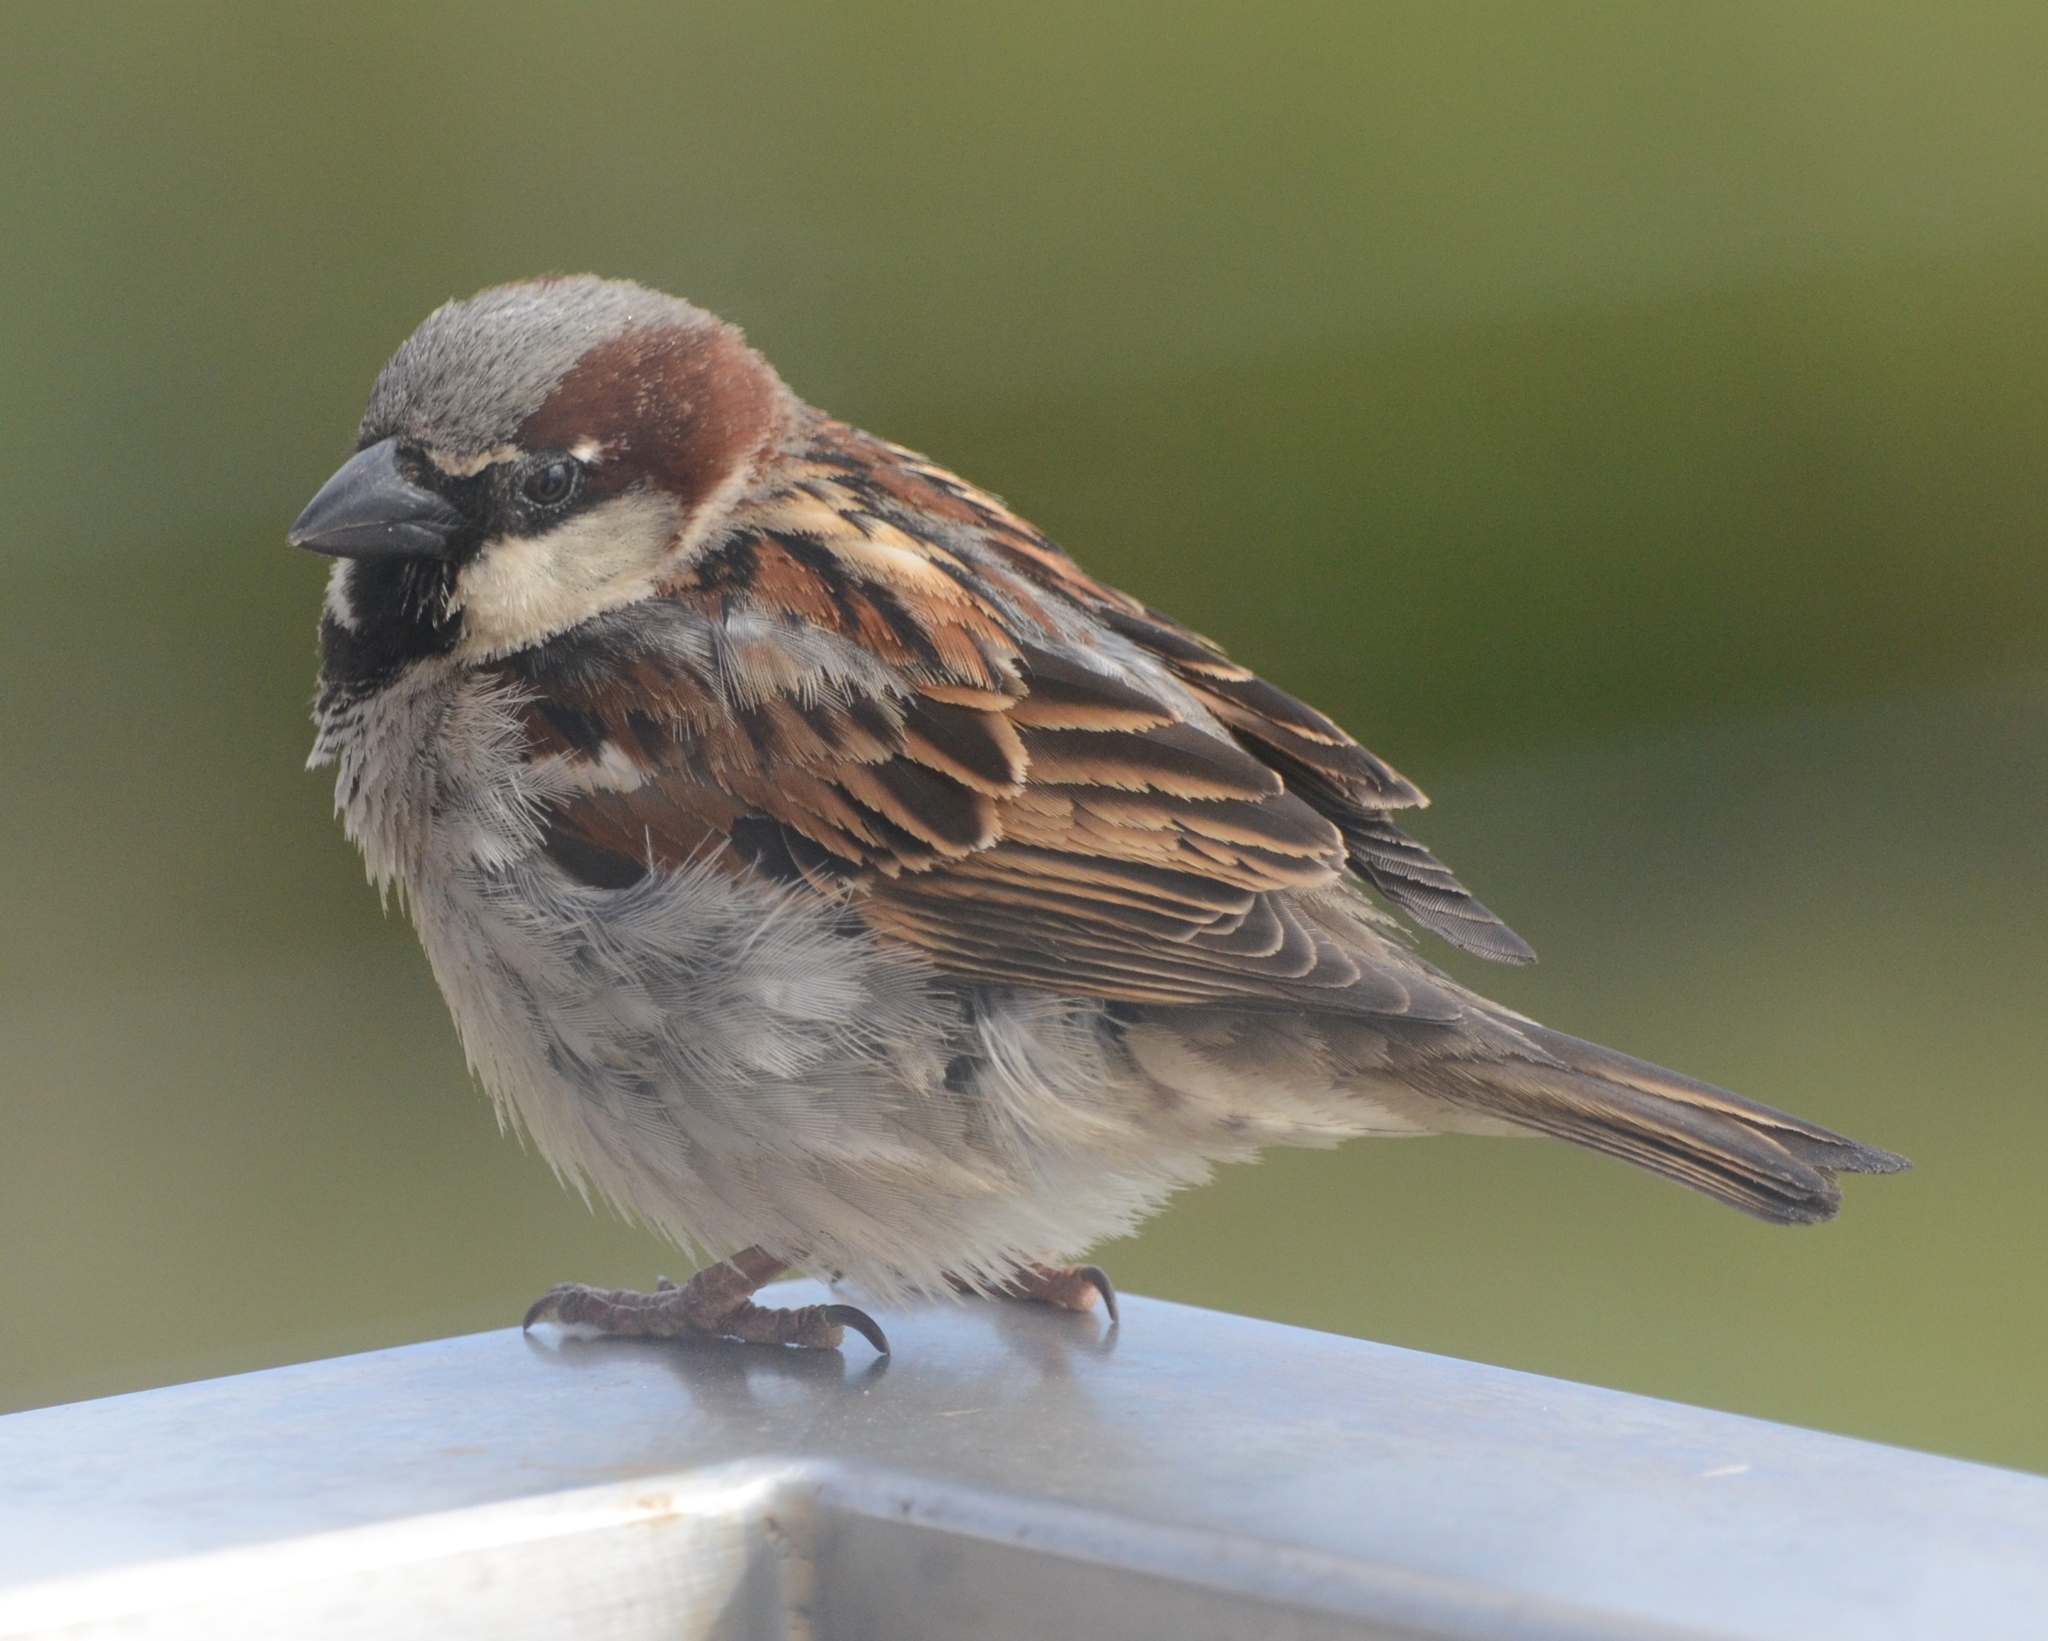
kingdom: Animalia
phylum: Chordata
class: Aves
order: Passeriformes
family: Passeridae
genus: Passer
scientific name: Passer domesticus
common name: House sparrow
